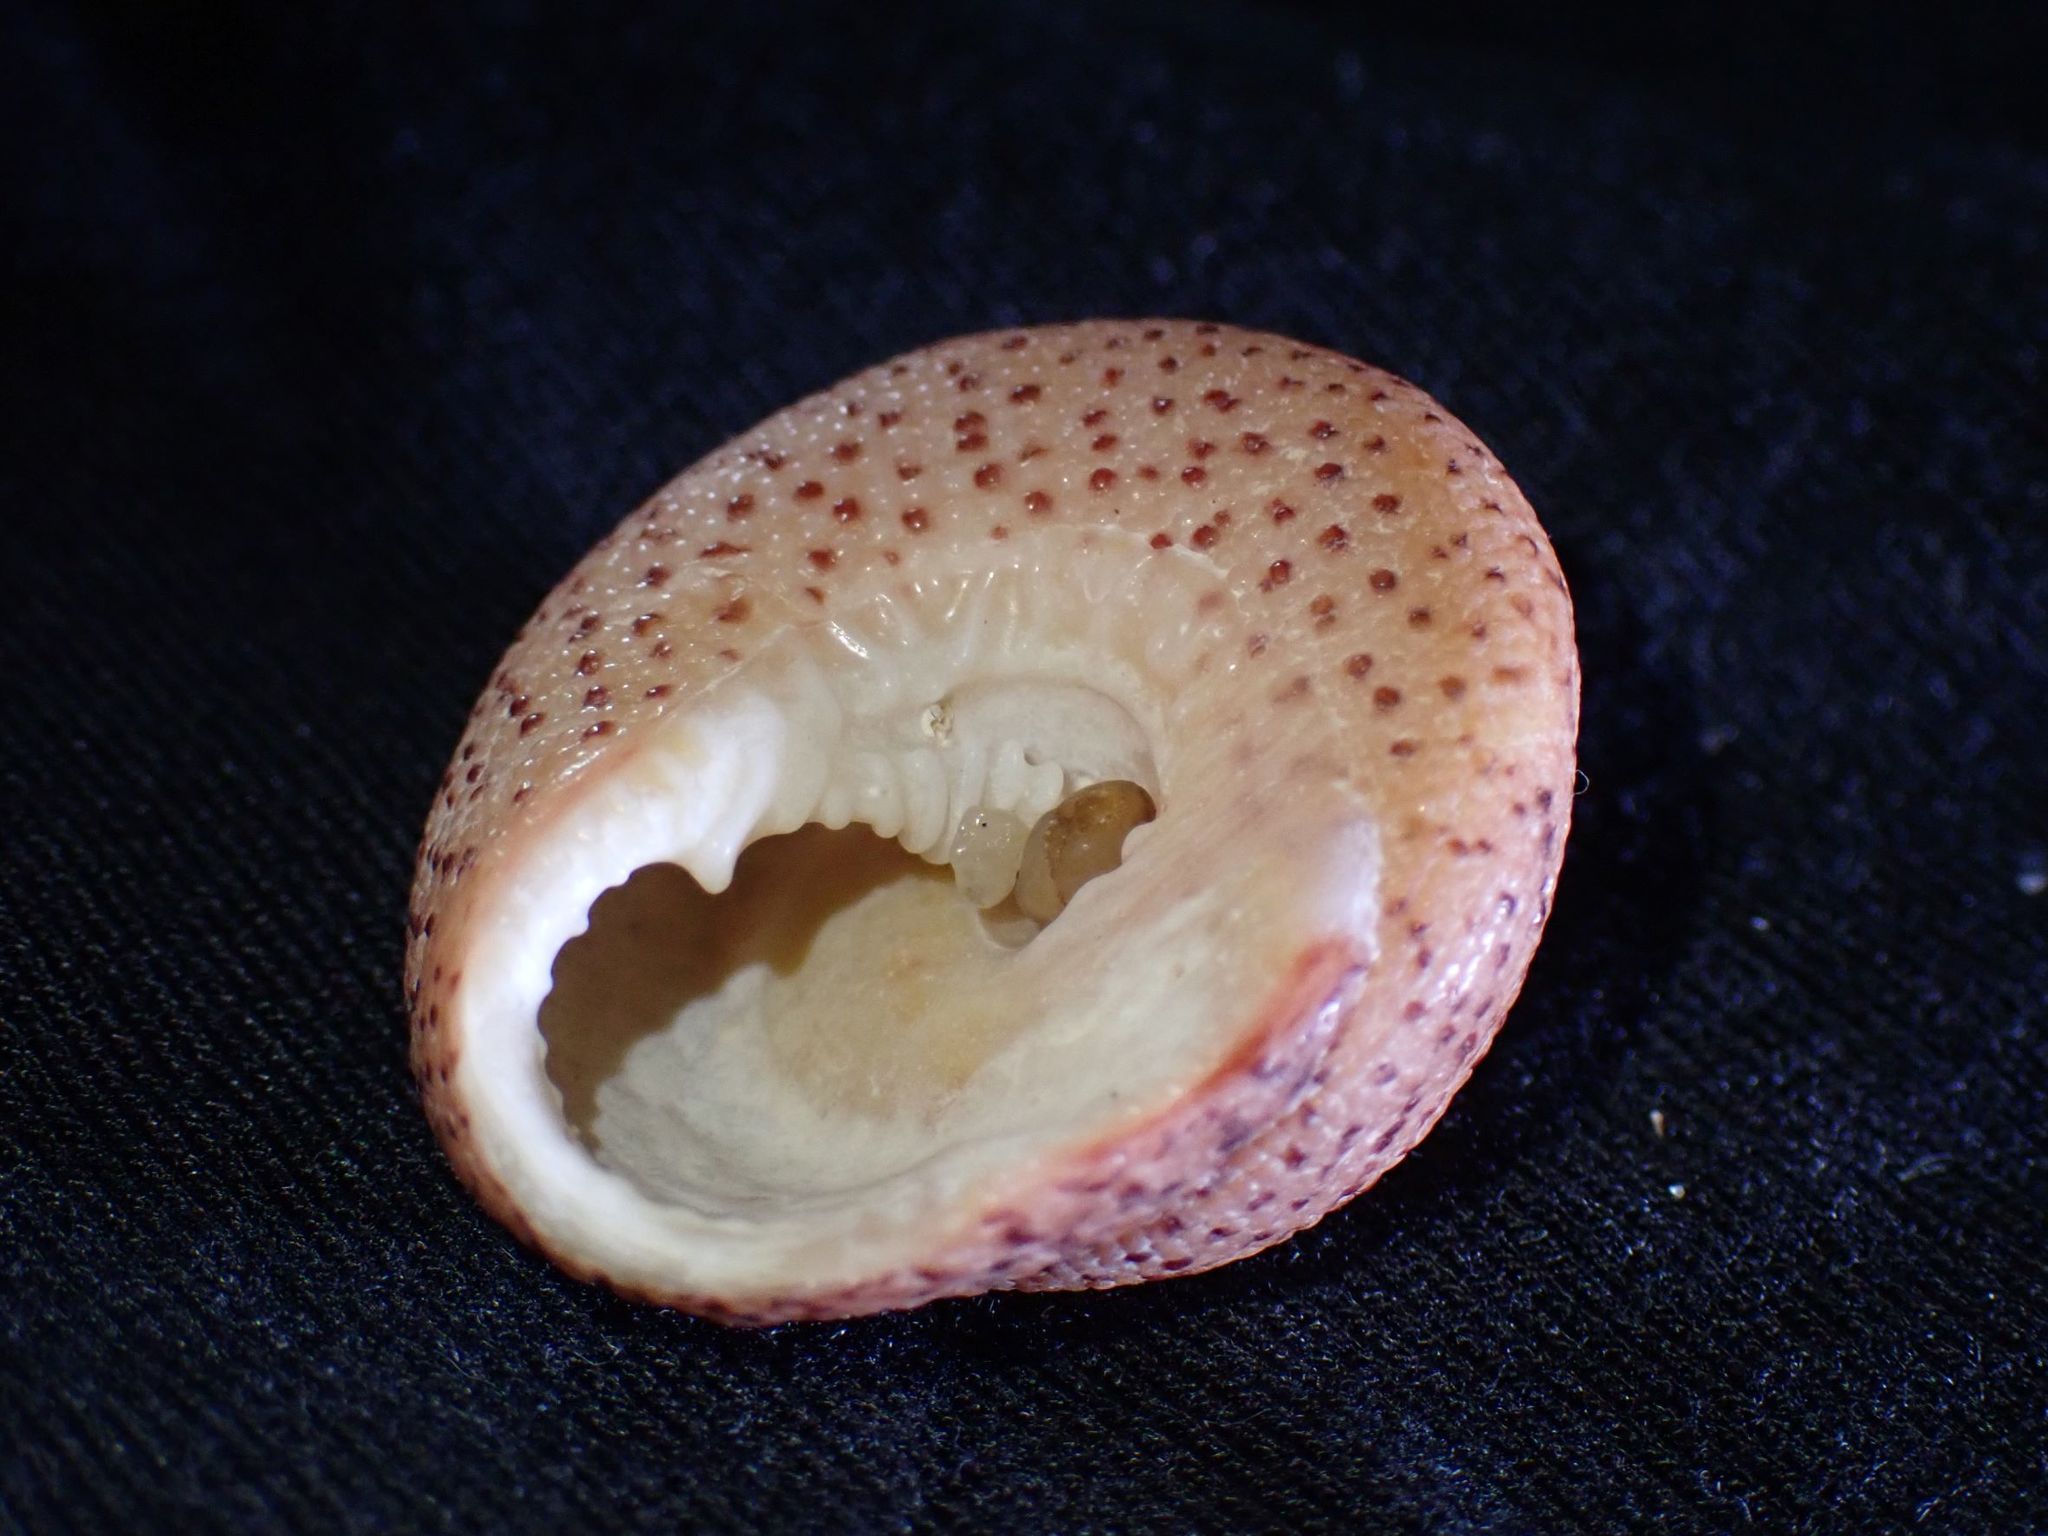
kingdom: Animalia
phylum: Mollusca
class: Gastropoda
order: Trochida
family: Trochidae
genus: Clanculus
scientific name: Clanculus undatus
